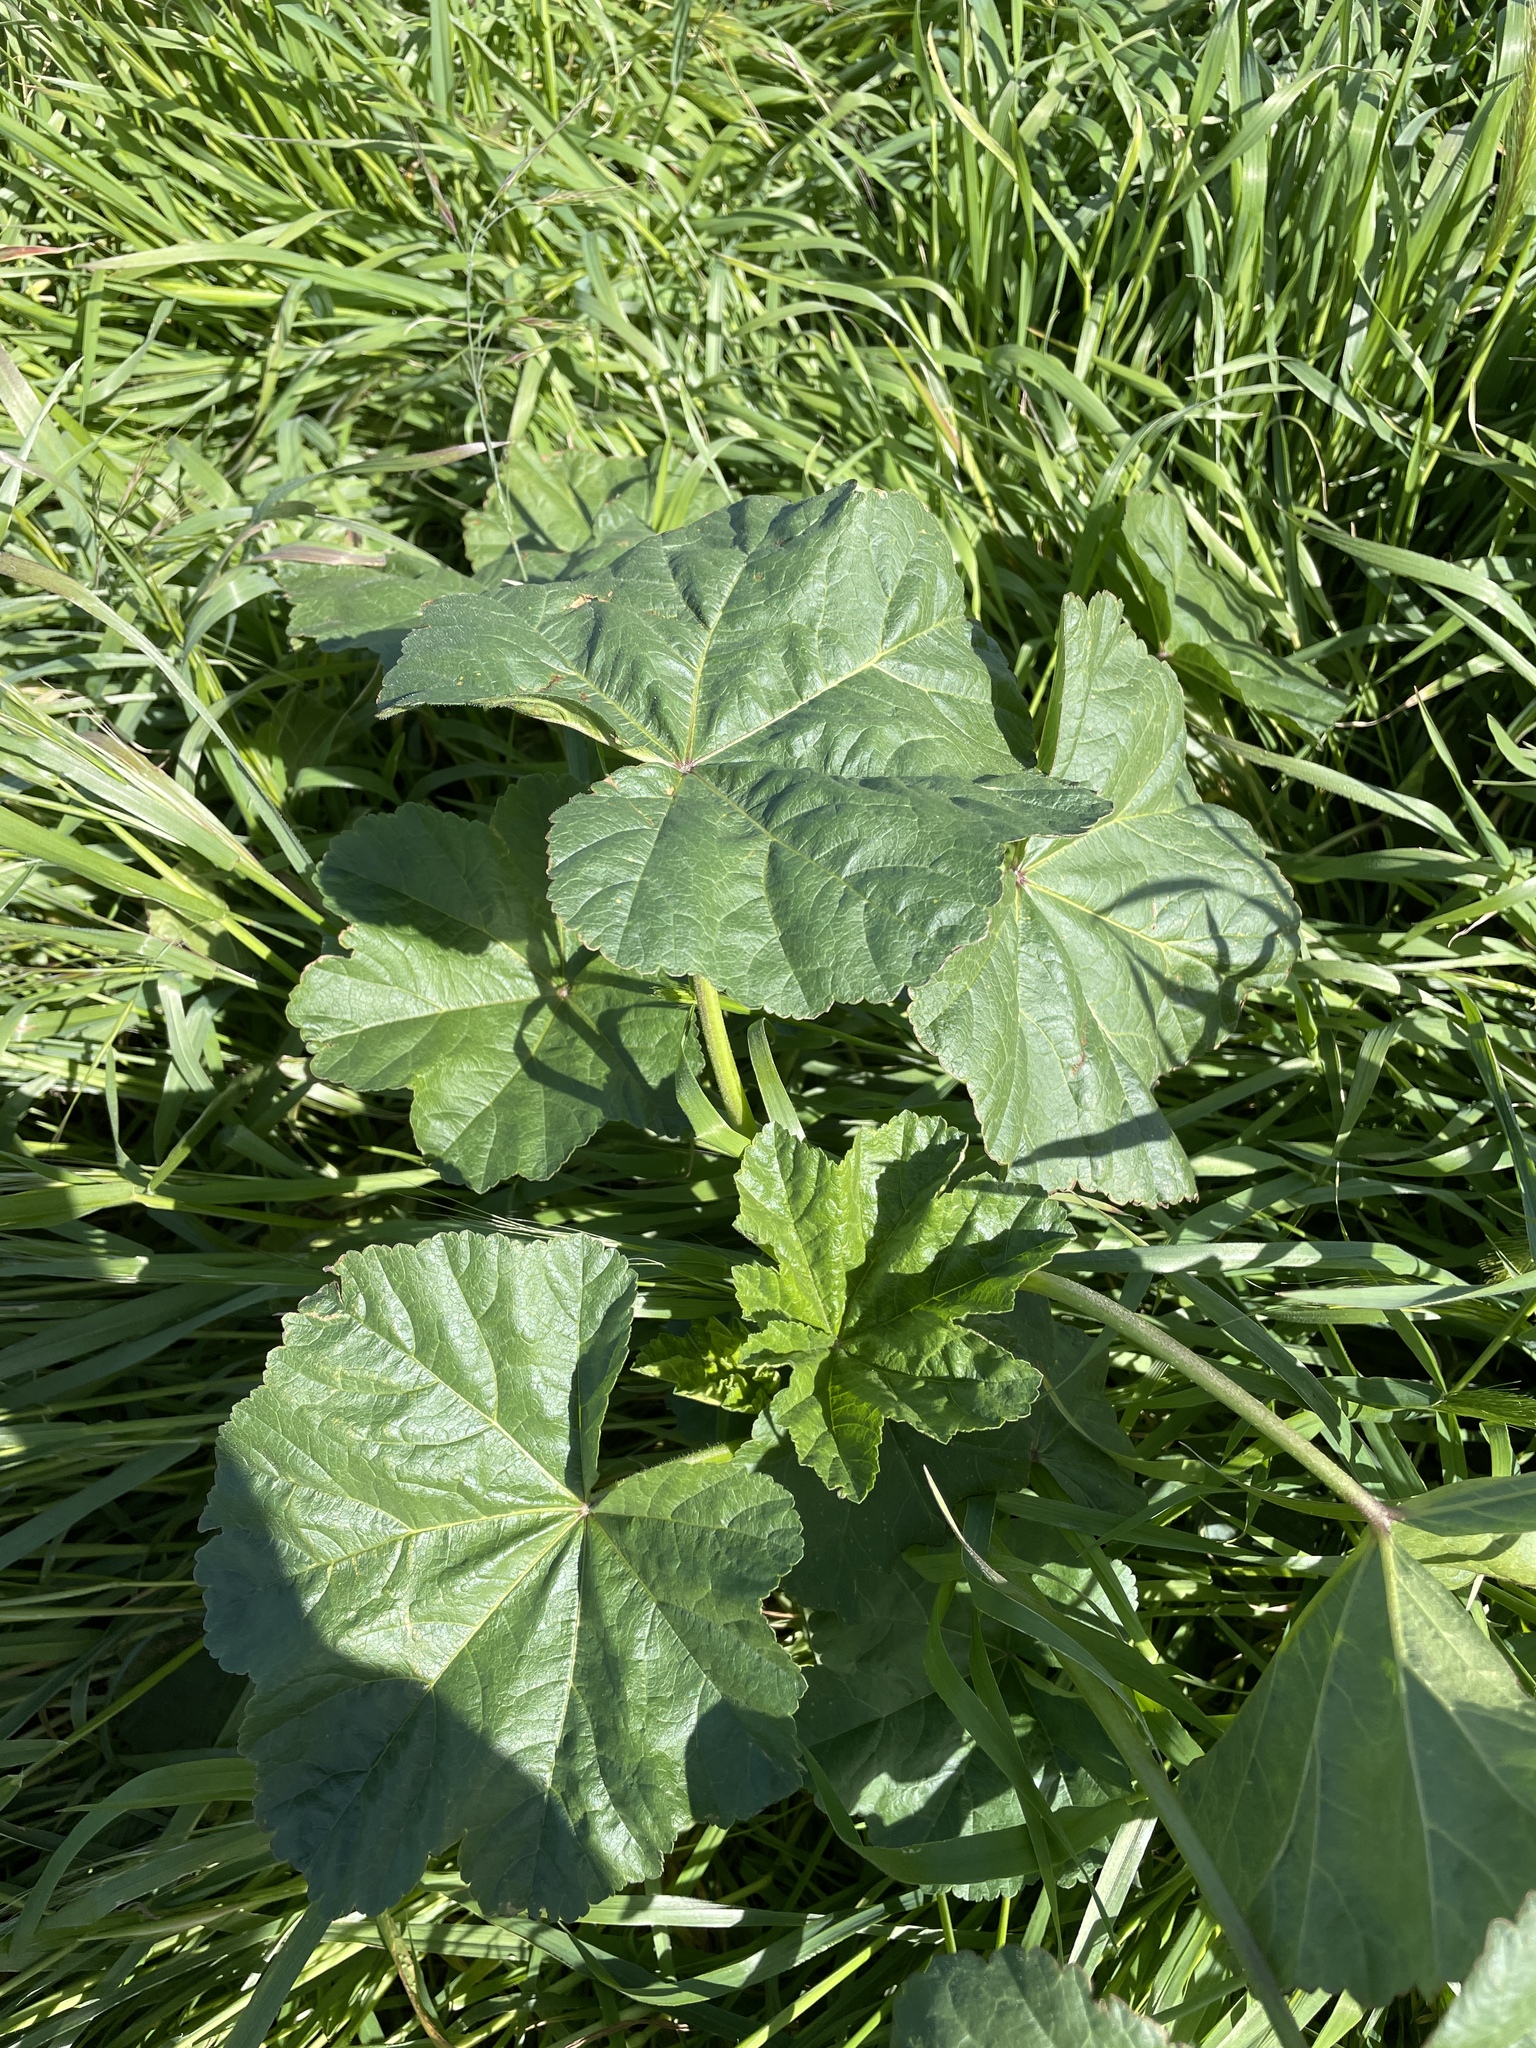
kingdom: Plantae
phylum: Tracheophyta
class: Magnoliopsida
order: Malvales
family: Malvaceae
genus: Malva
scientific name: Malva
